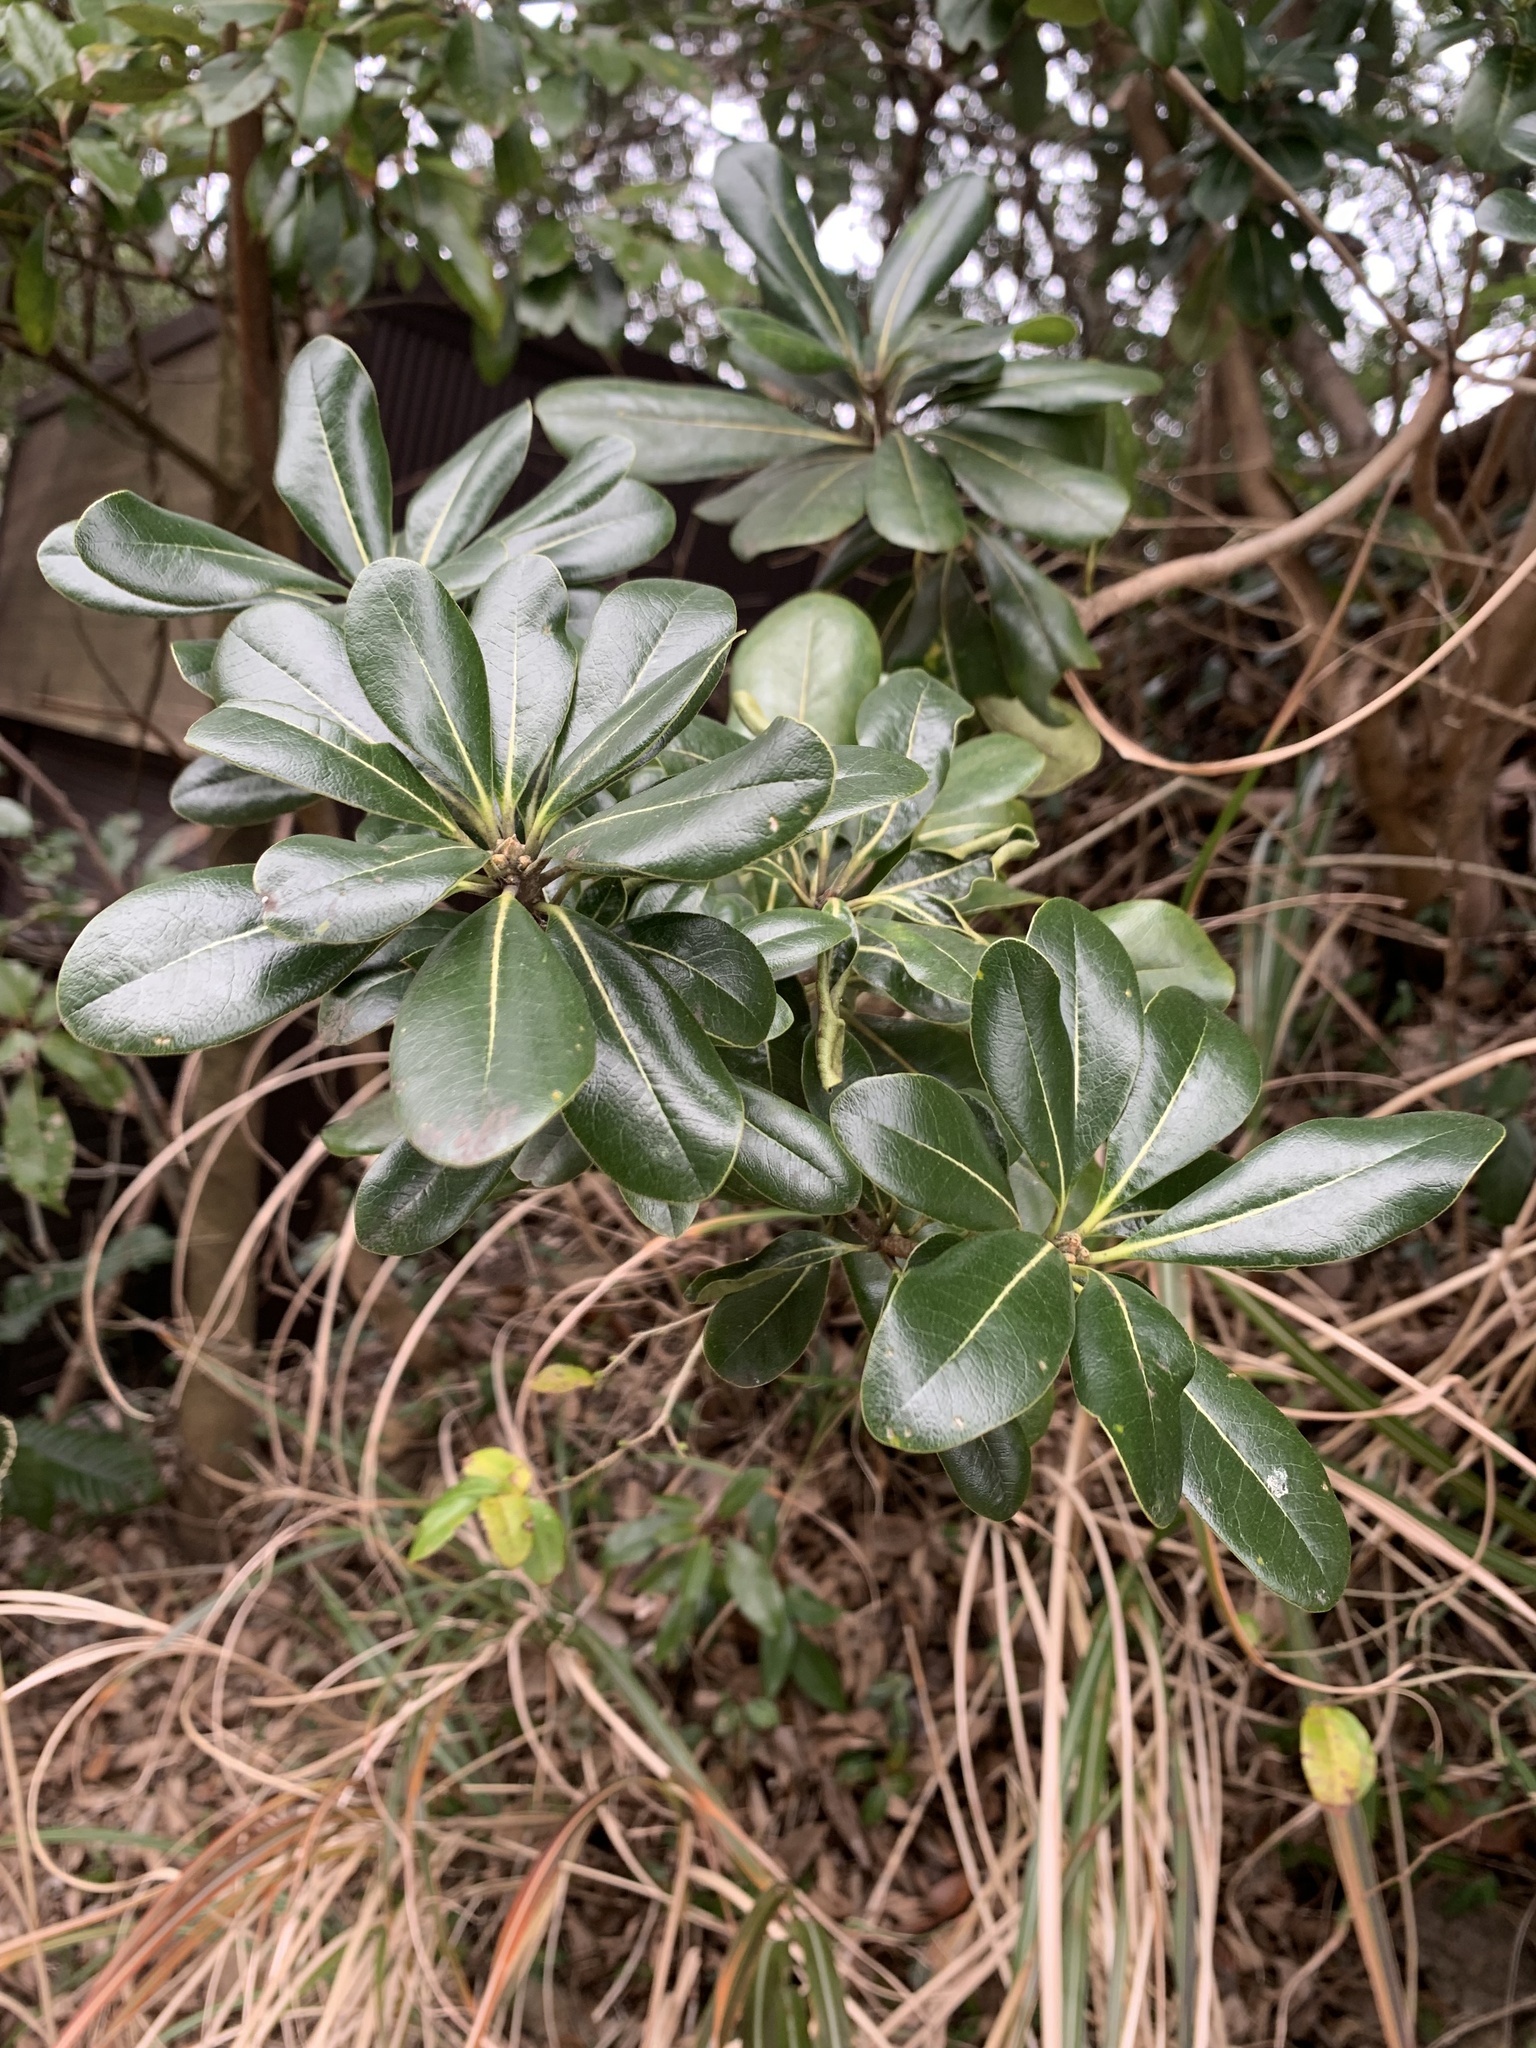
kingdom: Plantae
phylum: Tracheophyta
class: Magnoliopsida
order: Apiales
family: Pittosporaceae
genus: Pittosporum
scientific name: Pittosporum tobira
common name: Japanese cheesewood
